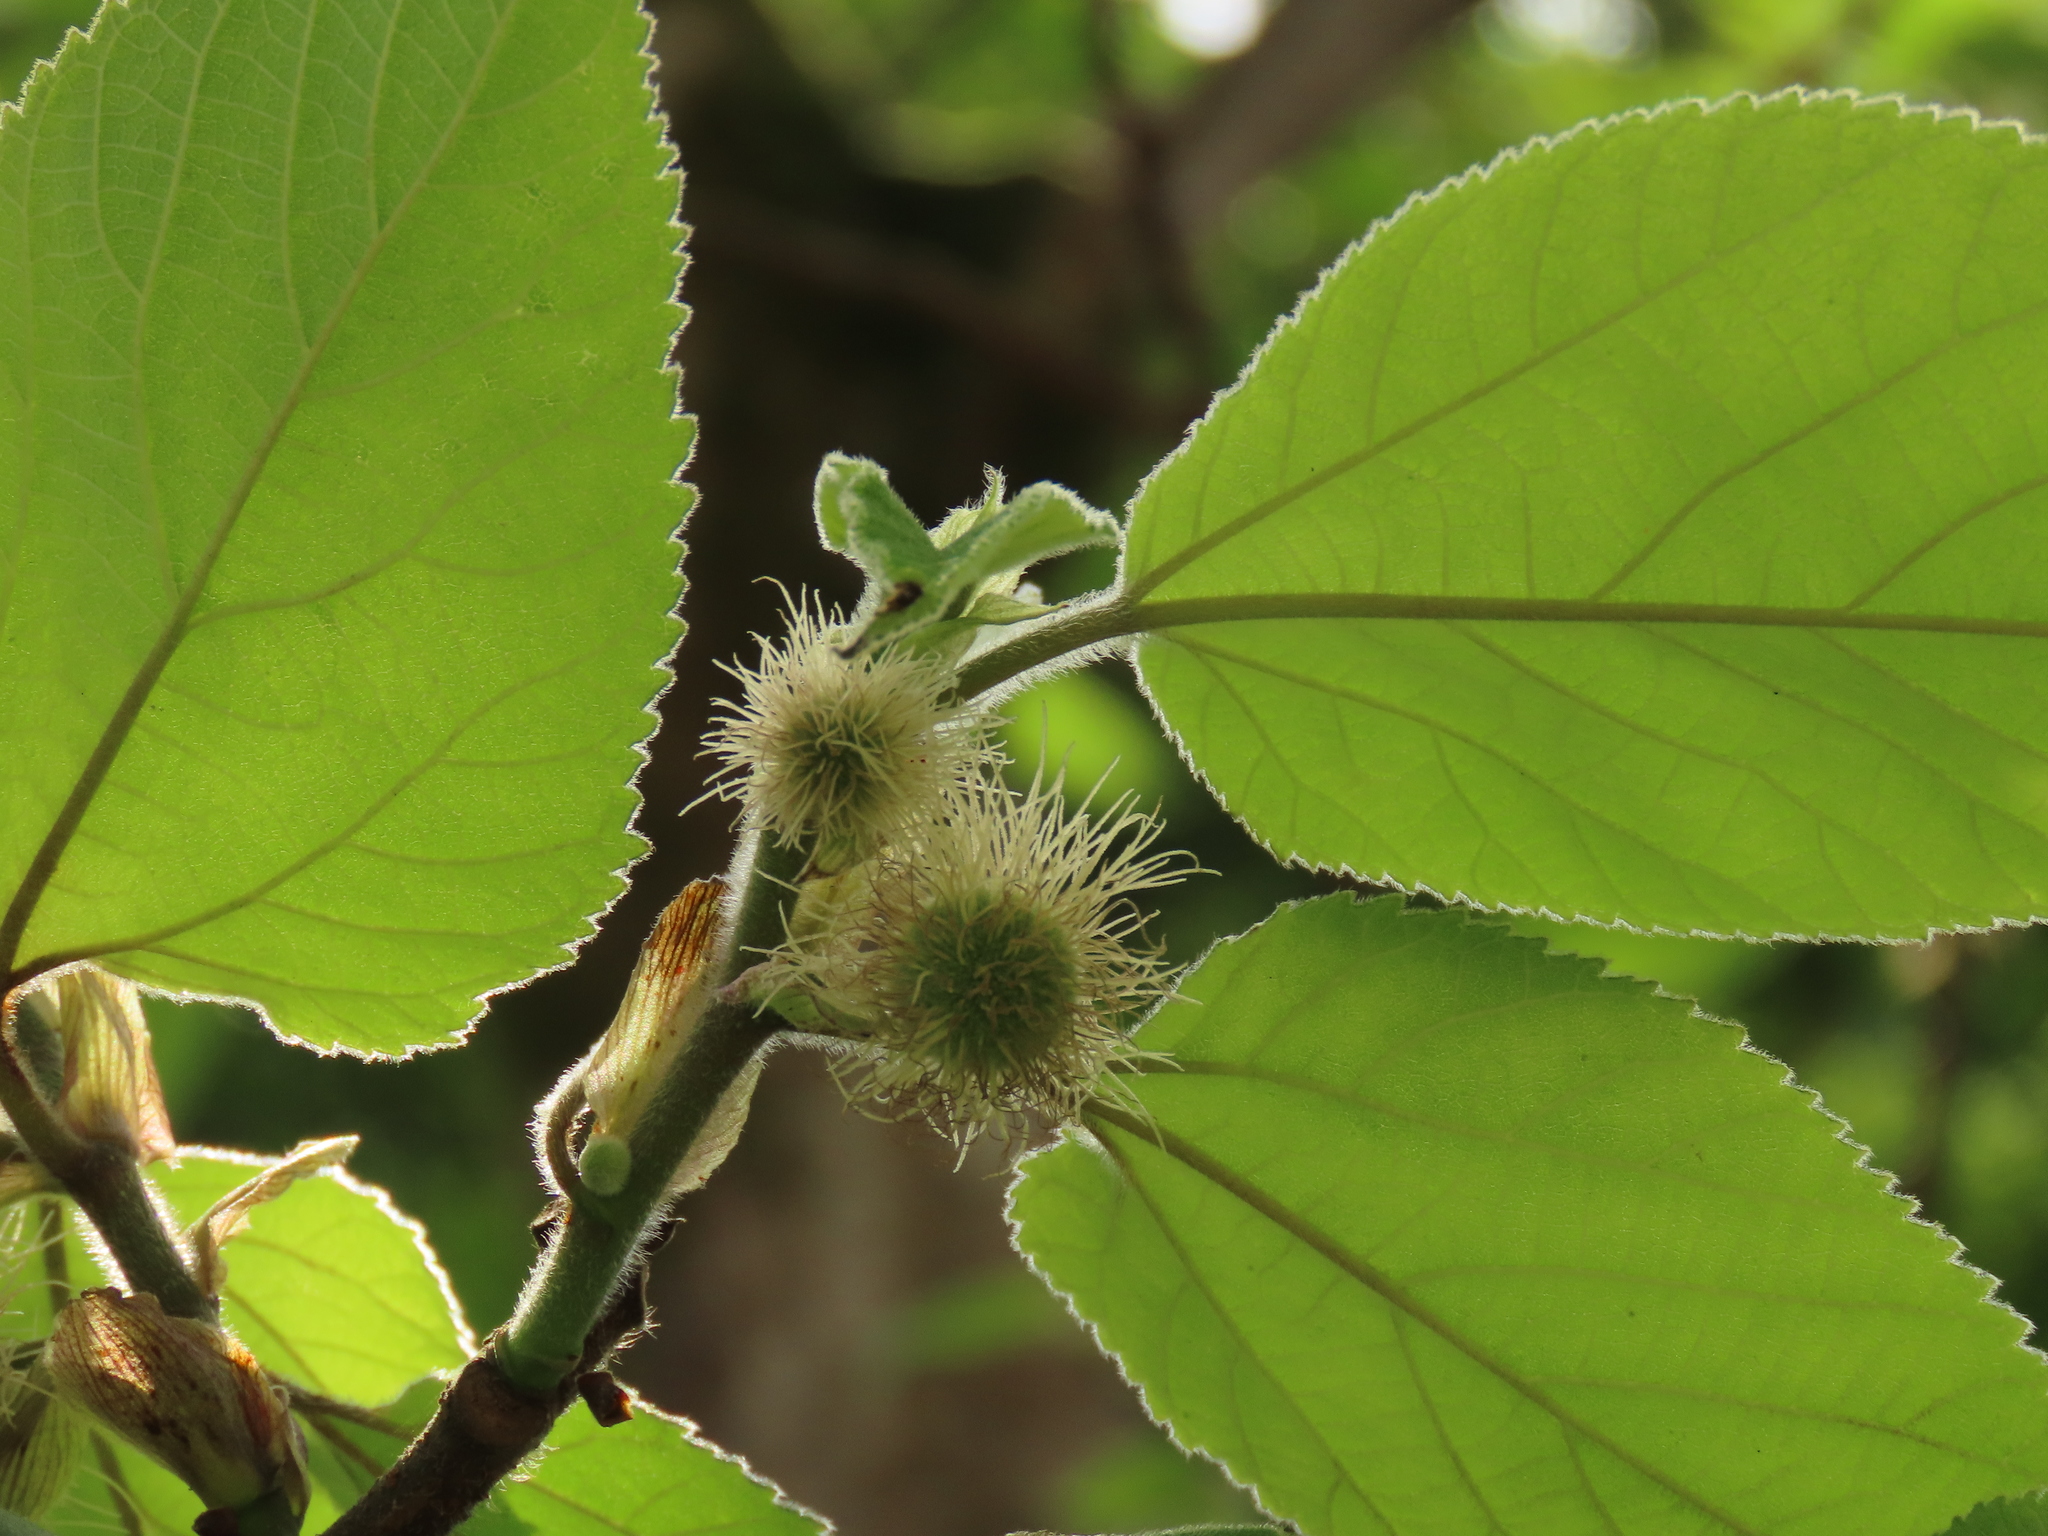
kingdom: Plantae
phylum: Tracheophyta
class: Magnoliopsida
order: Rosales
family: Moraceae
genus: Broussonetia
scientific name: Broussonetia papyrifera
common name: Paper mulberry
